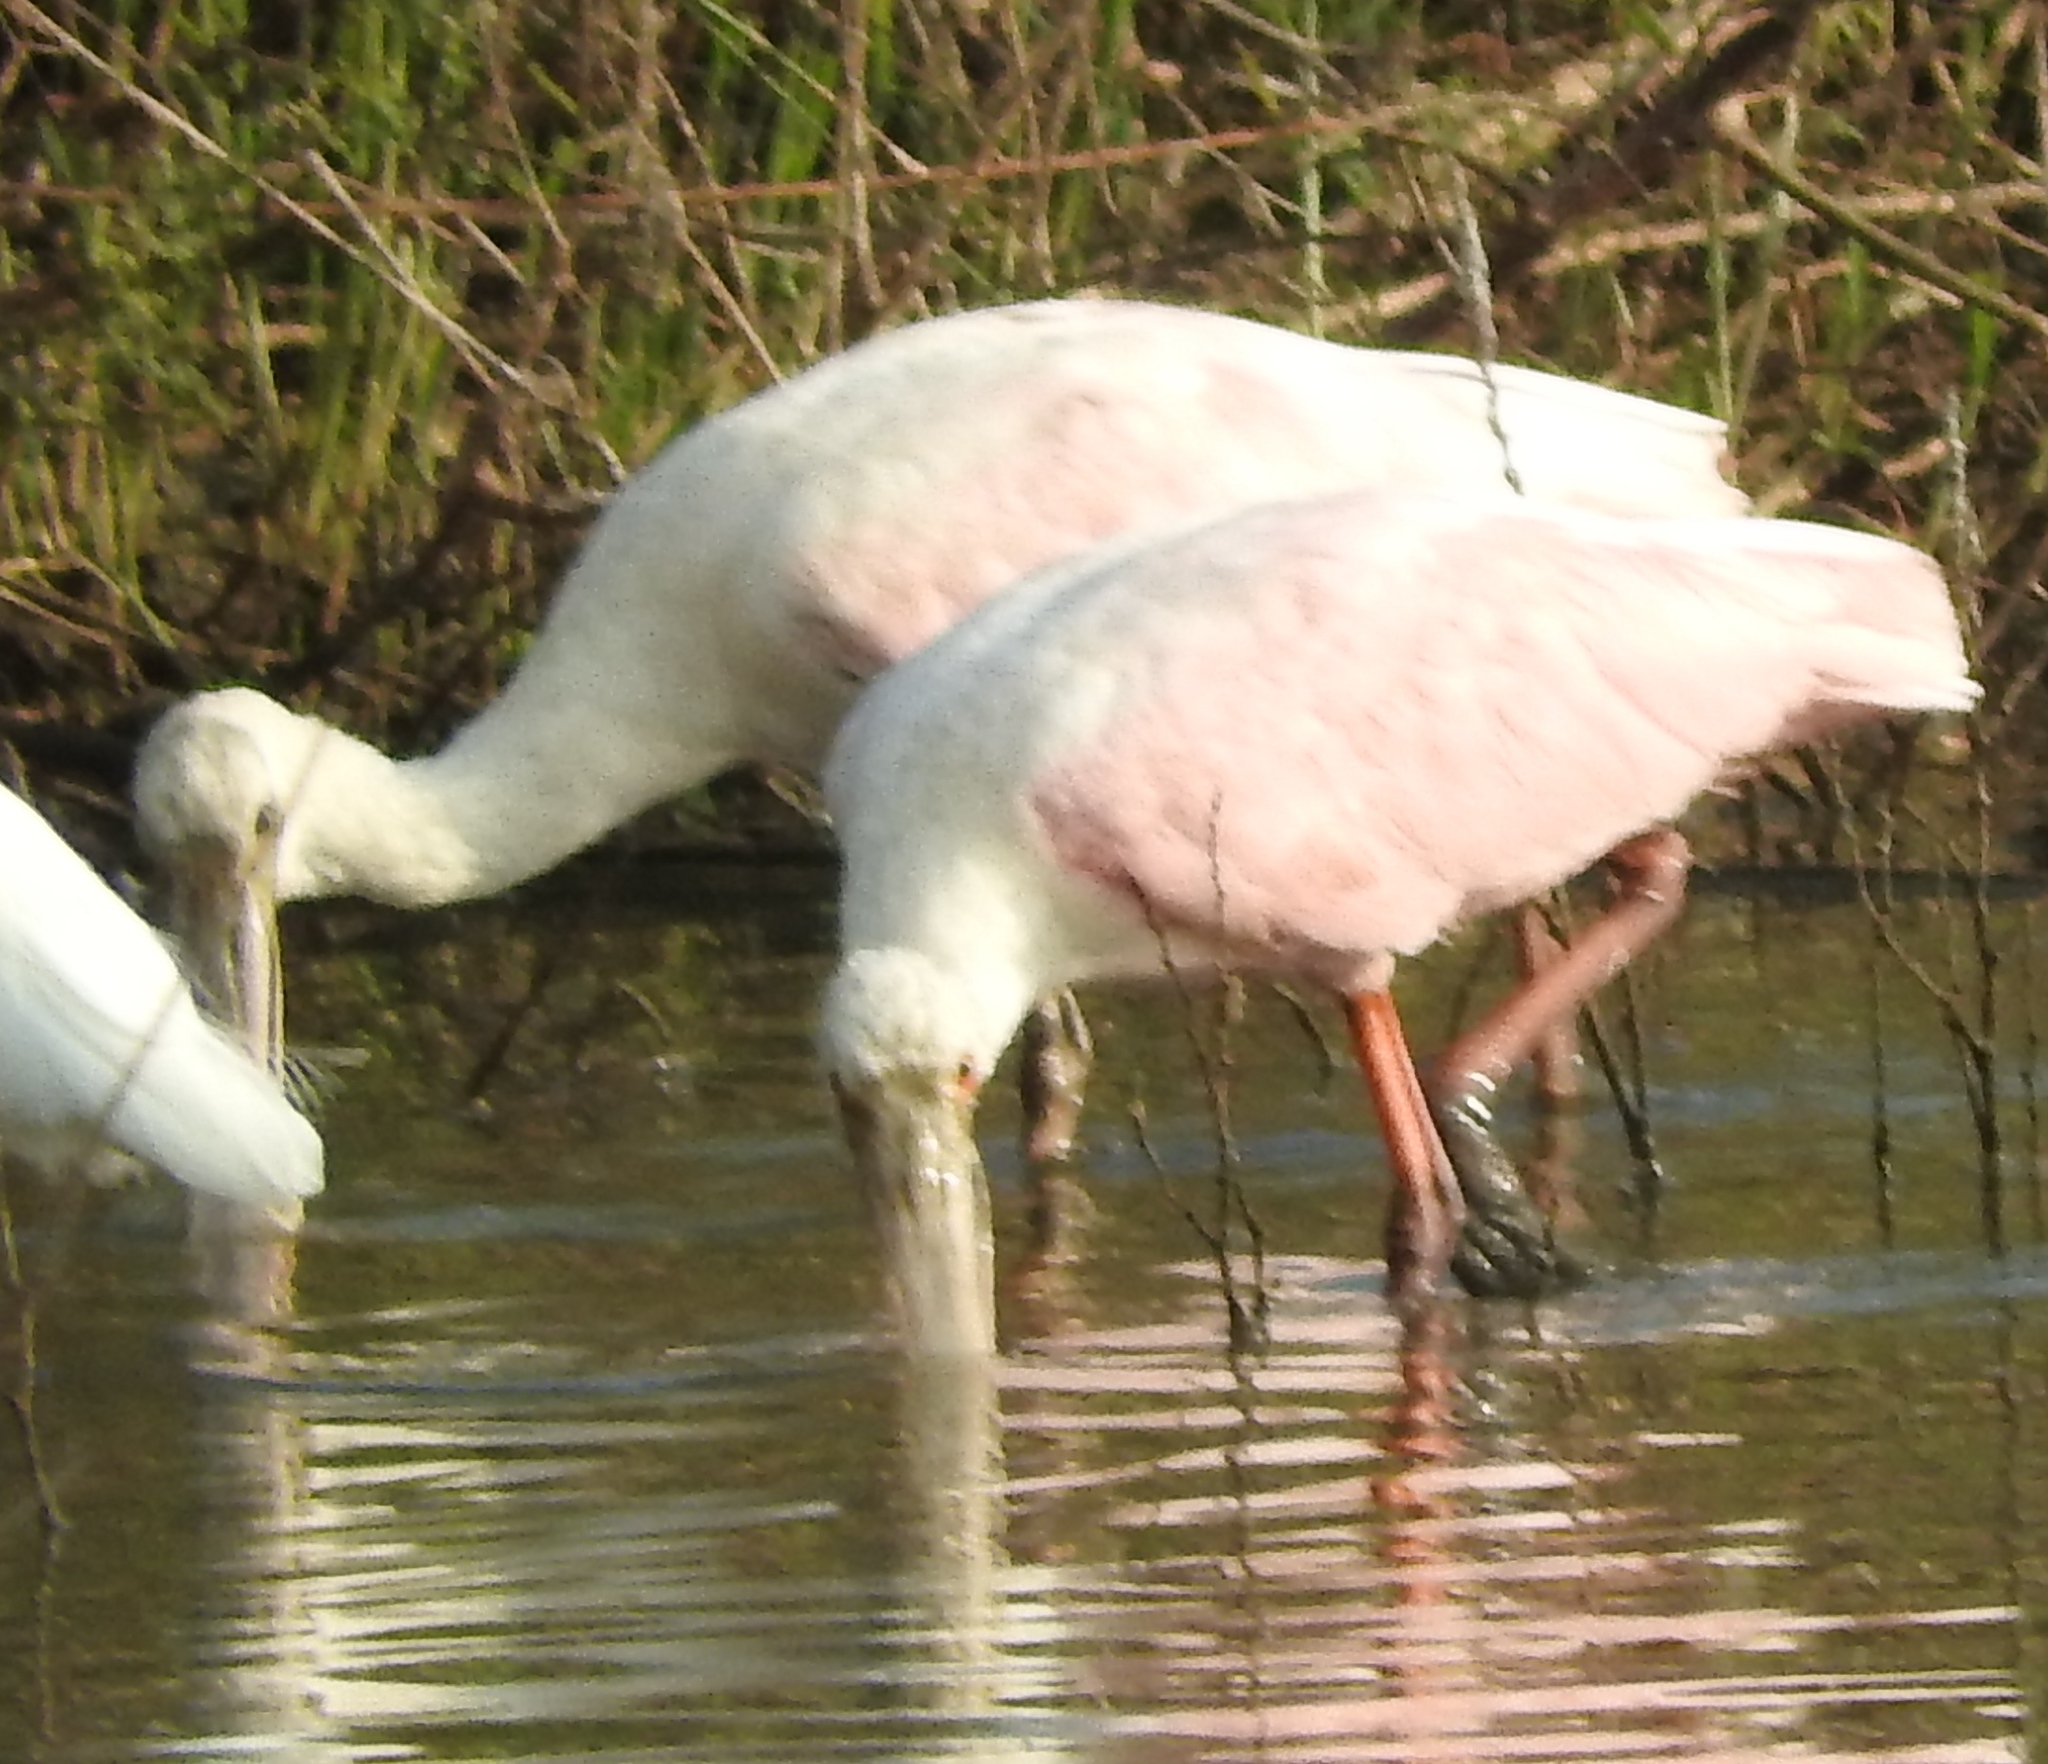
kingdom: Animalia
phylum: Chordata
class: Aves
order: Pelecaniformes
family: Threskiornithidae
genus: Platalea
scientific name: Platalea ajaja
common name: Roseate spoonbill
